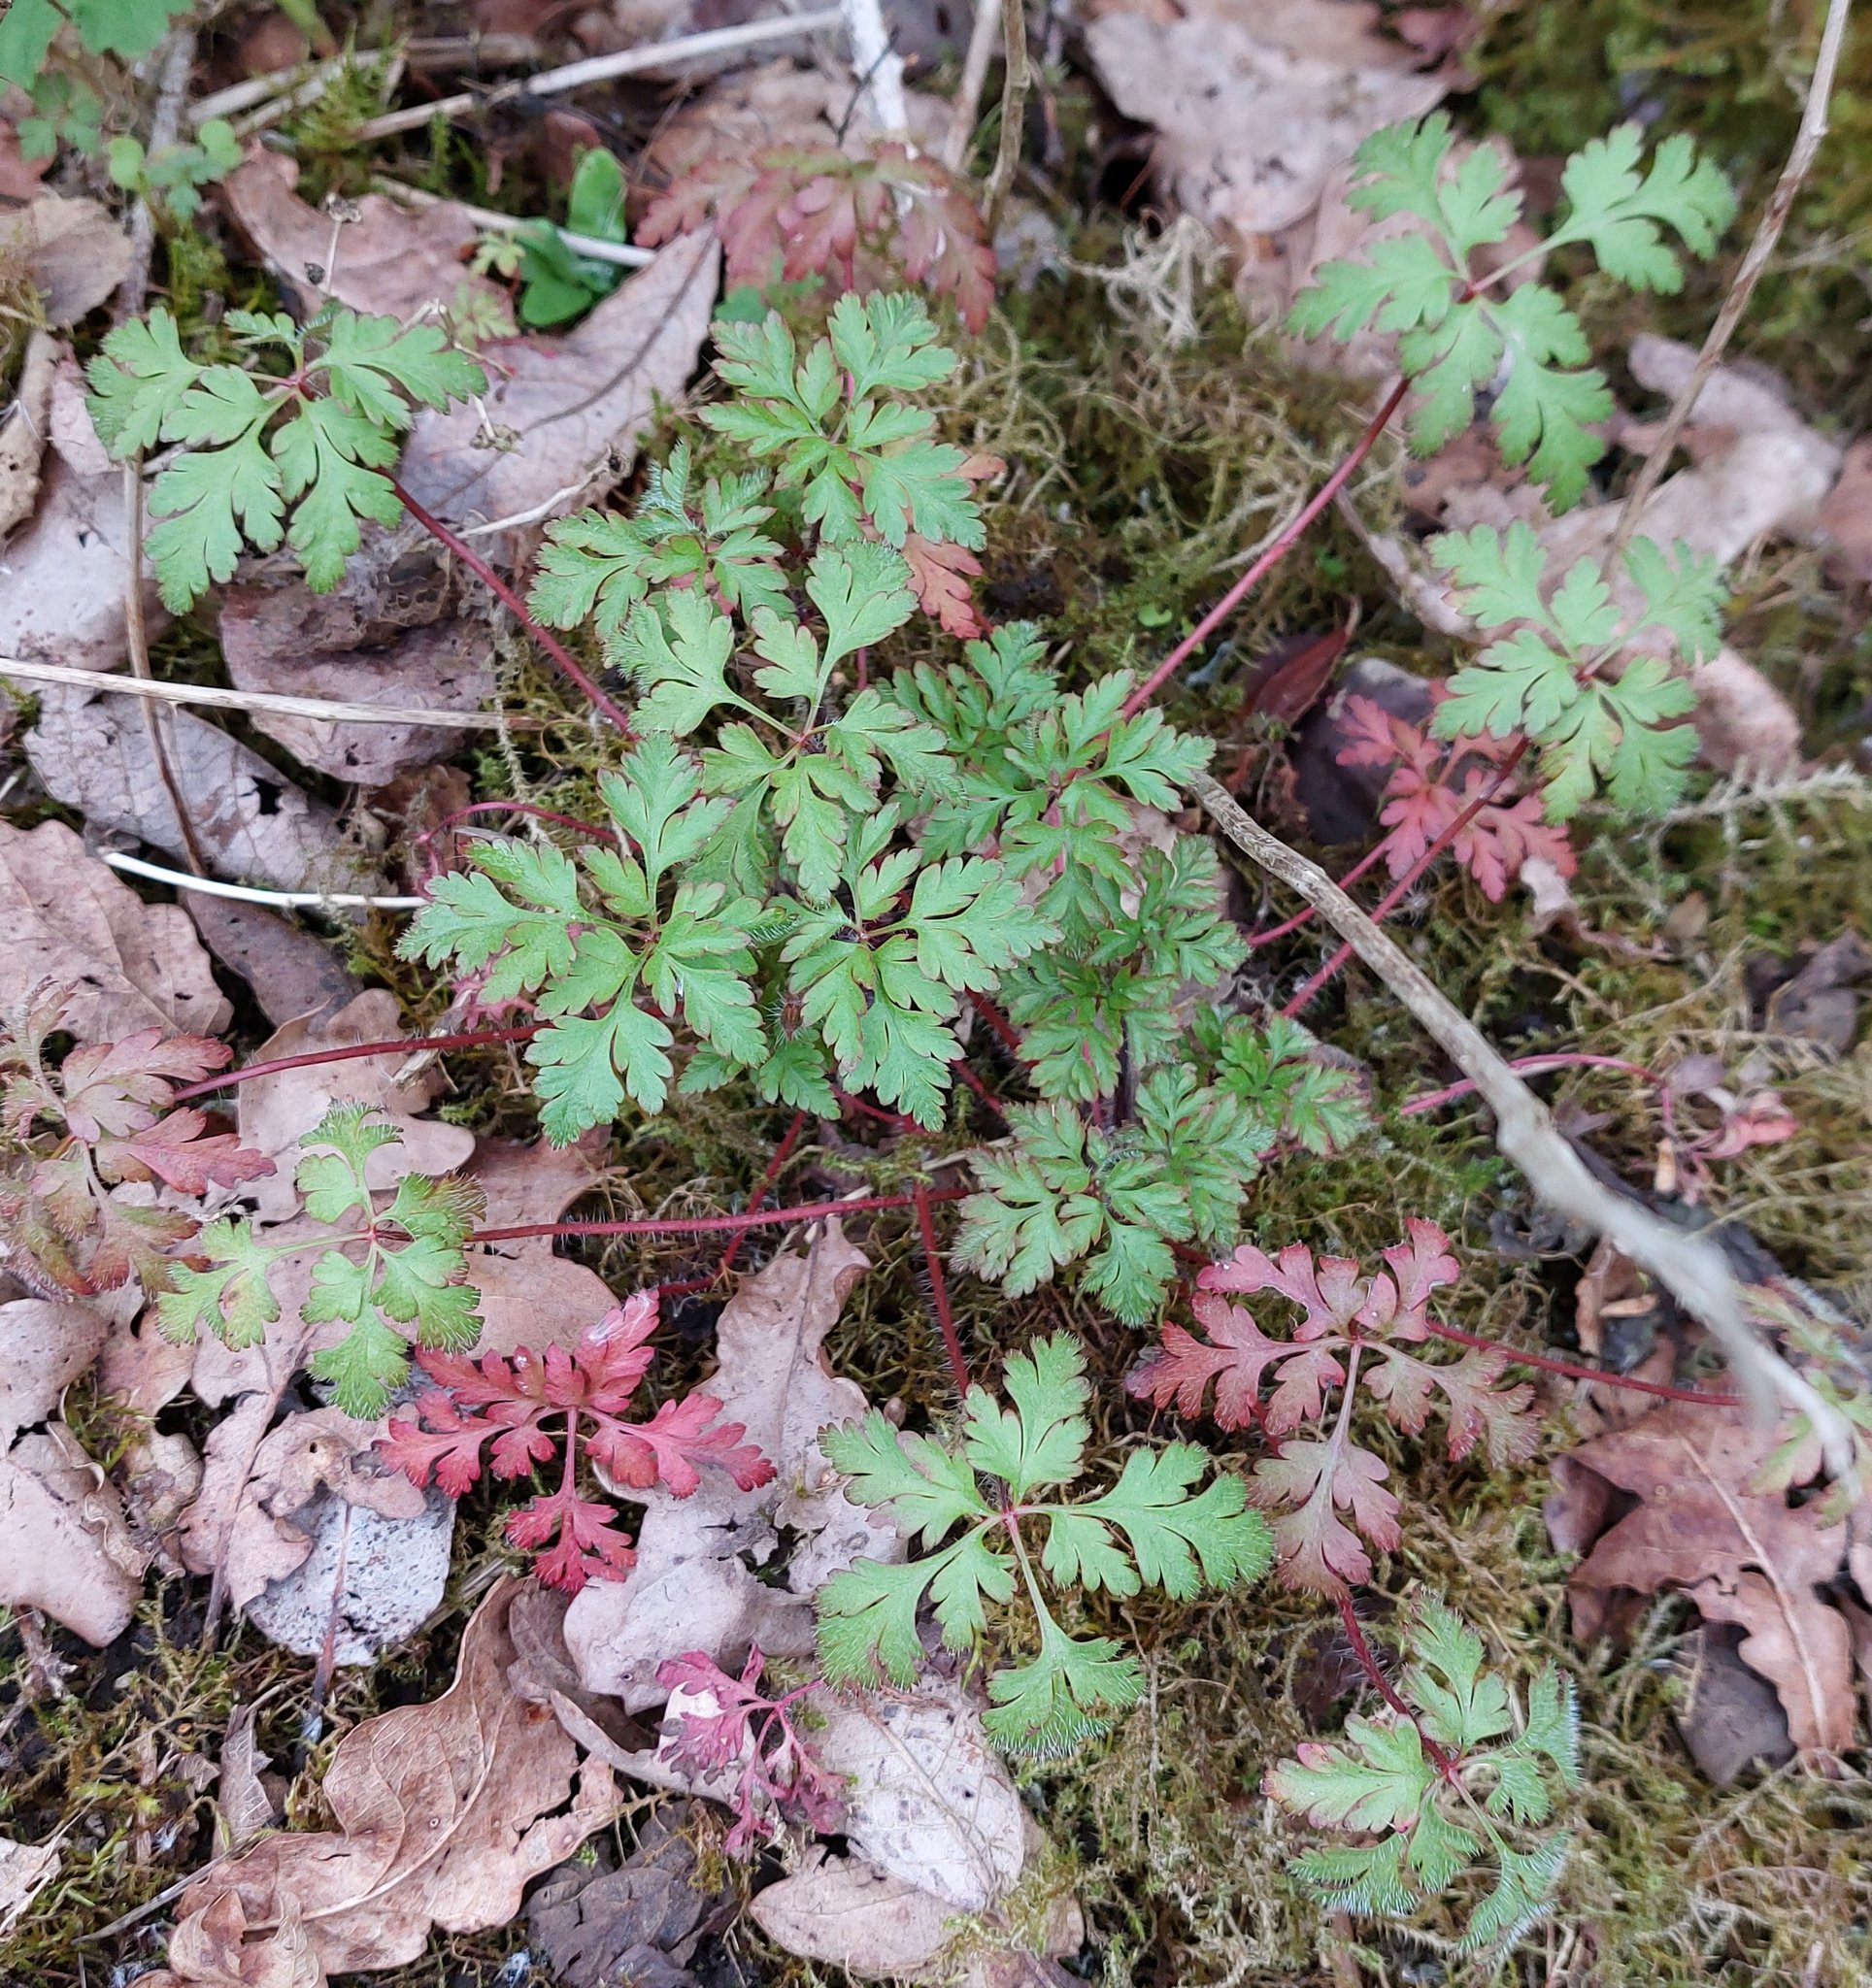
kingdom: Plantae
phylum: Tracheophyta
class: Magnoliopsida
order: Geraniales
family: Geraniaceae
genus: Geranium
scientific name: Geranium robertianum
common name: Herb-robert
